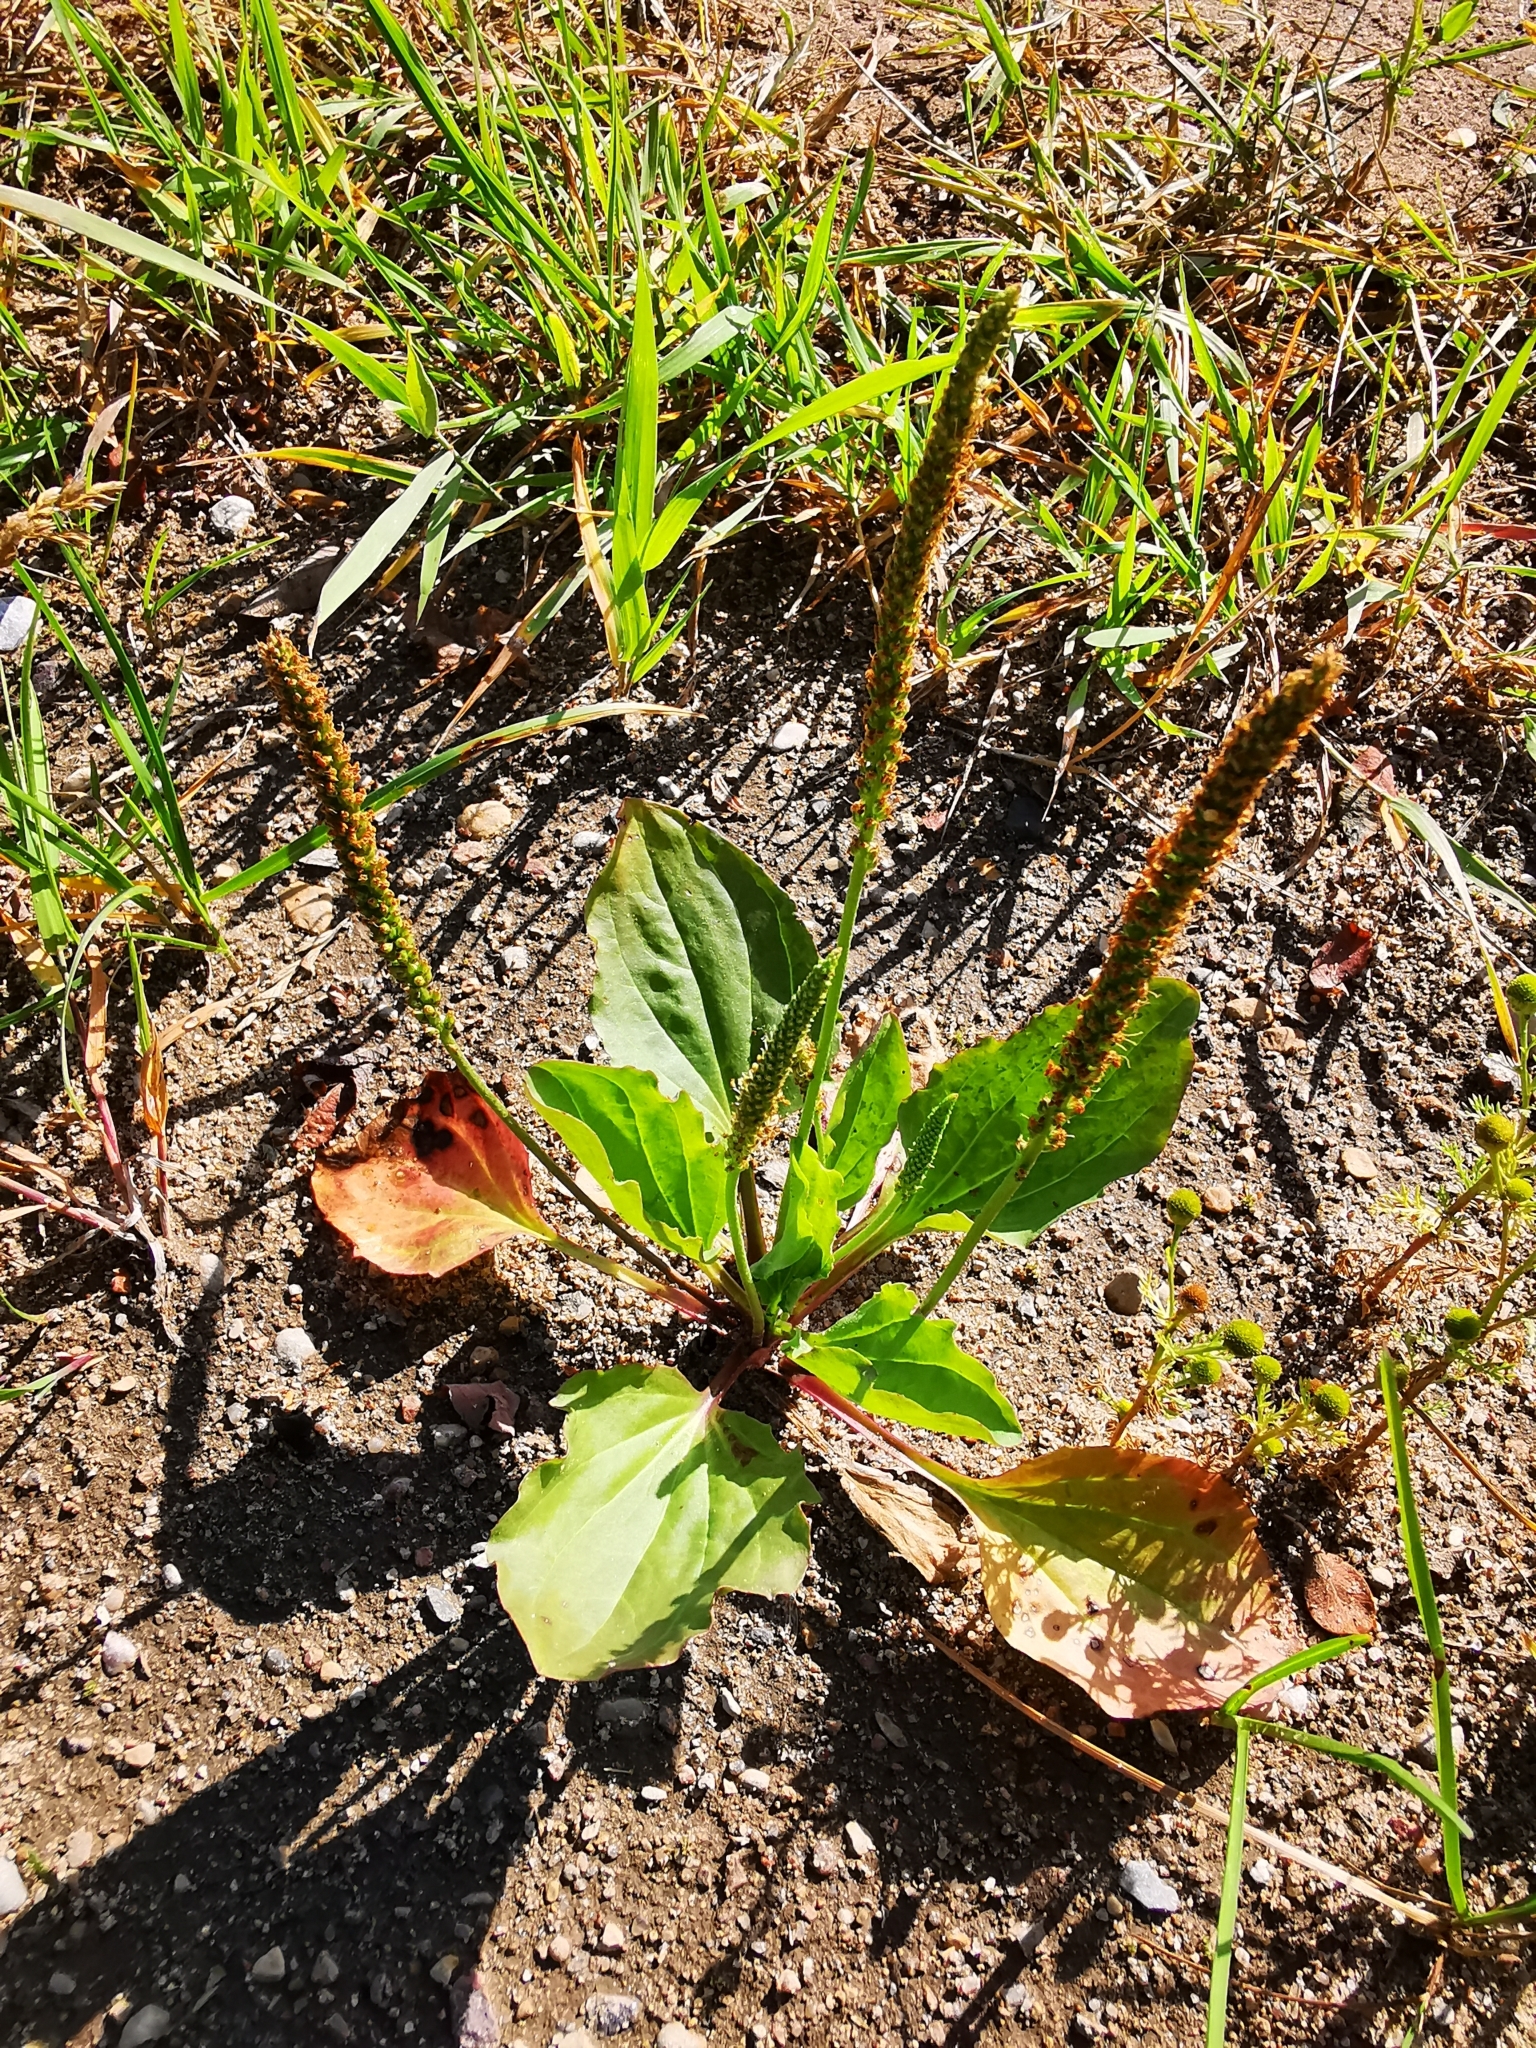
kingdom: Plantae
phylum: Tracheophyta
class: Magnoliopsida
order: Lamiales
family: Plantaginaceae
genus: Plantago
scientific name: Plantago major
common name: Common plantain
